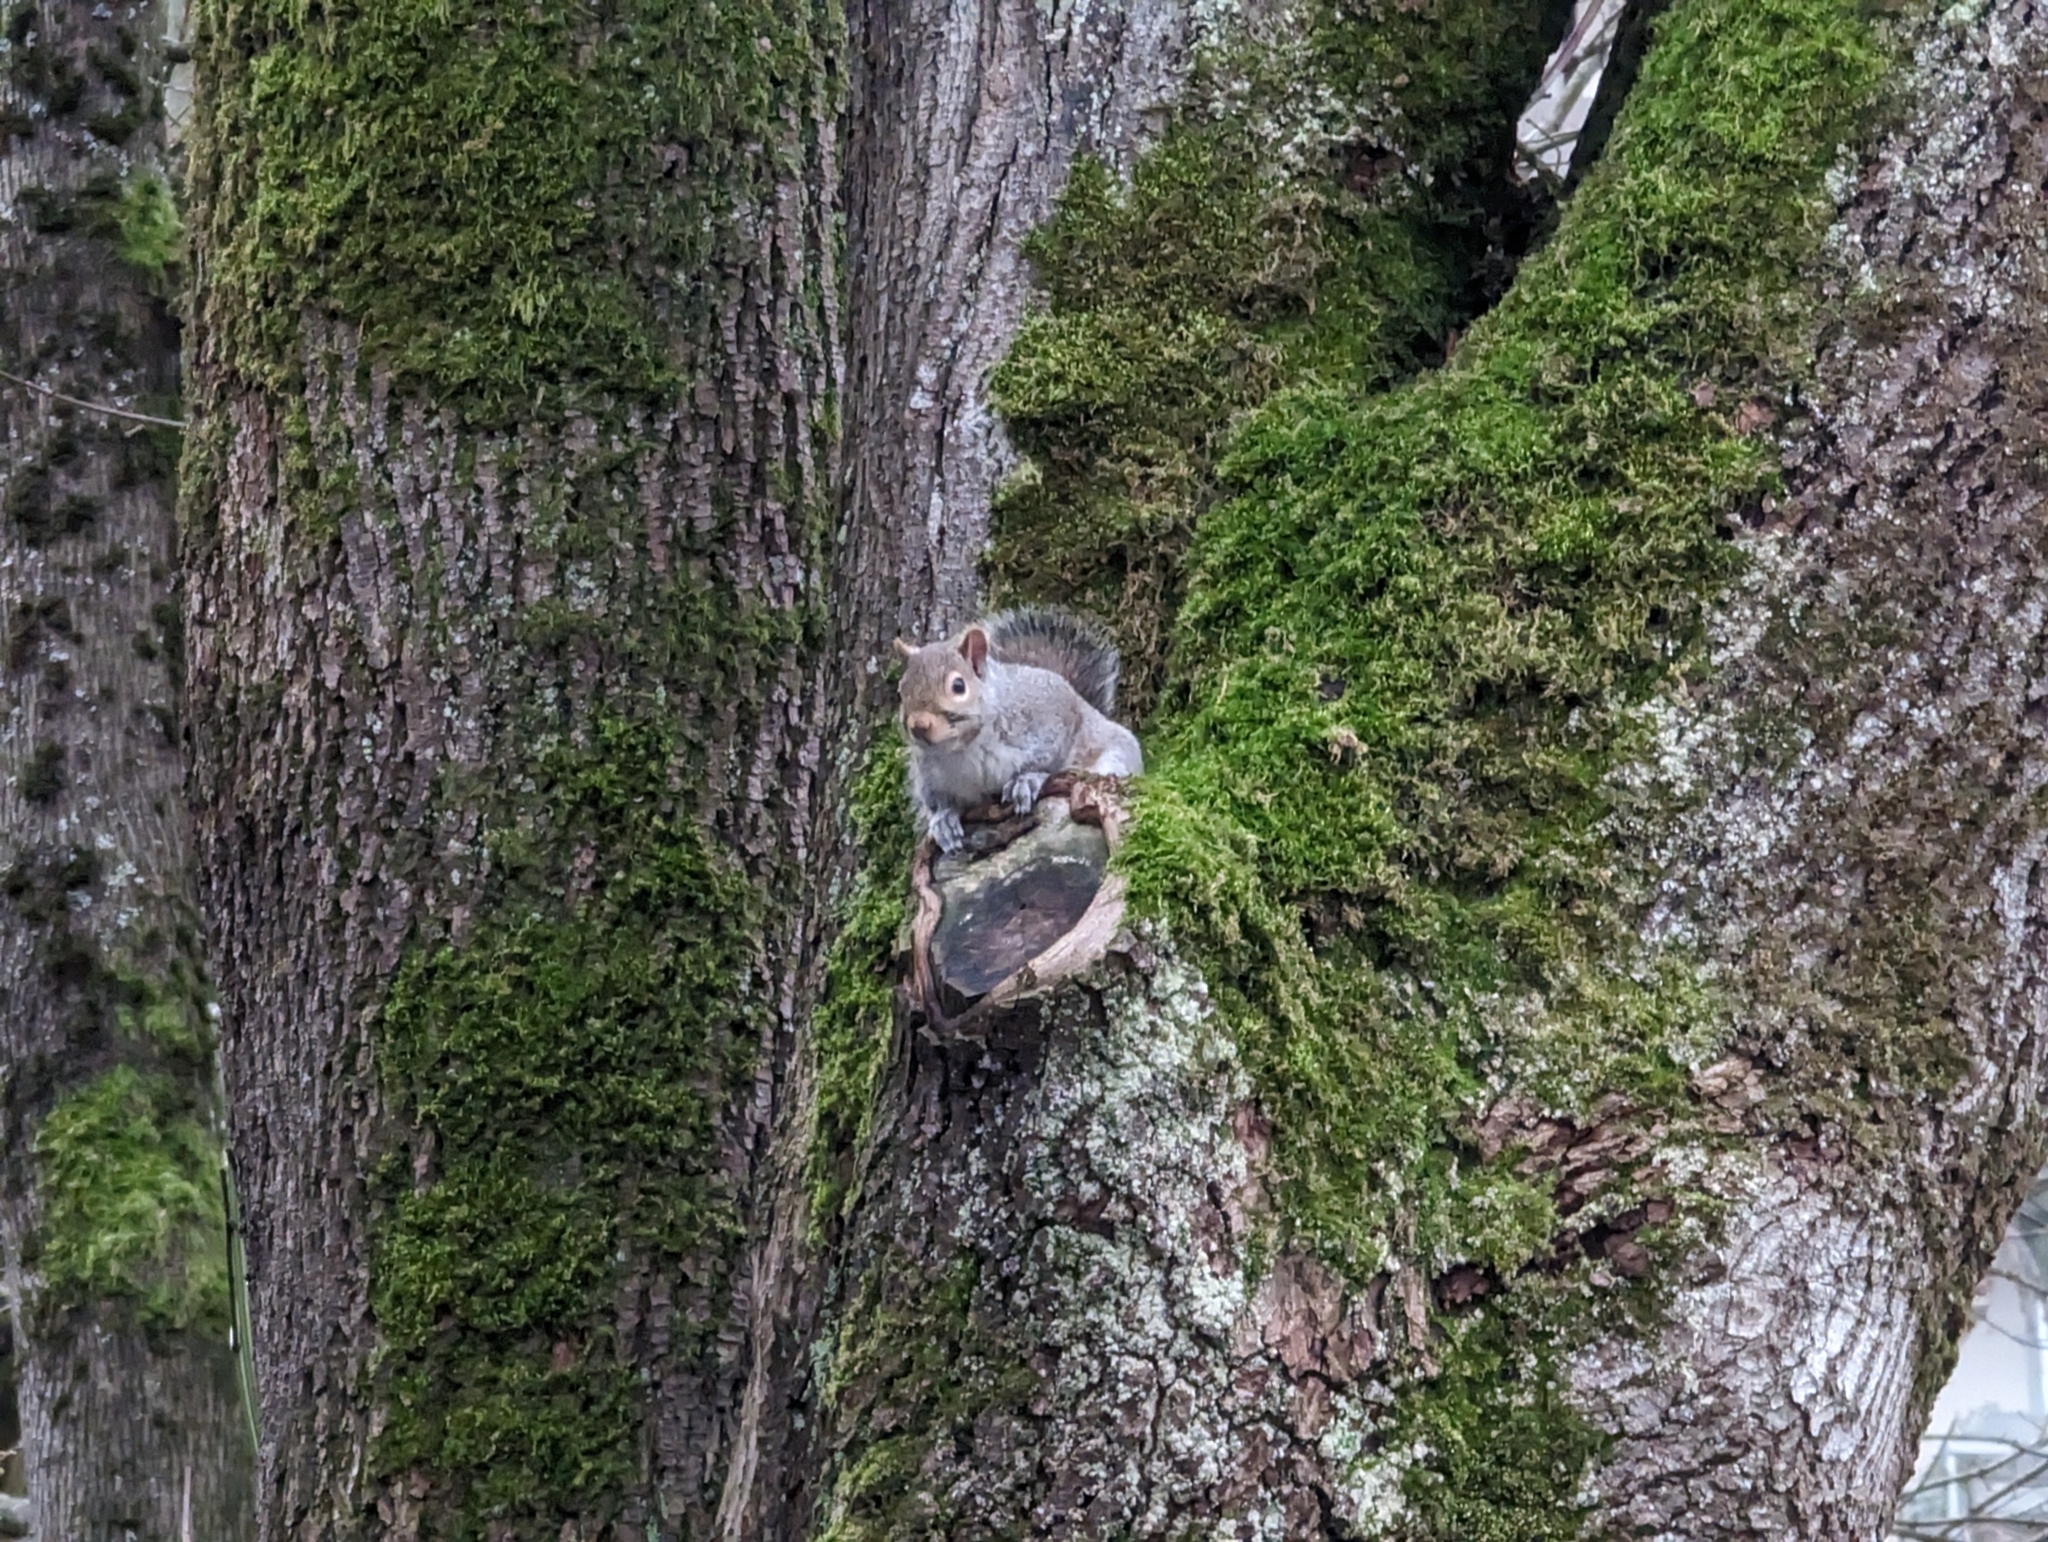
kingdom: Animalia
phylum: Chordata
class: Mammalia
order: Rodentia
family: Sciuridae
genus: Sciurus
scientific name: Sciurus carolinensis
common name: Eastern gray squirrel
